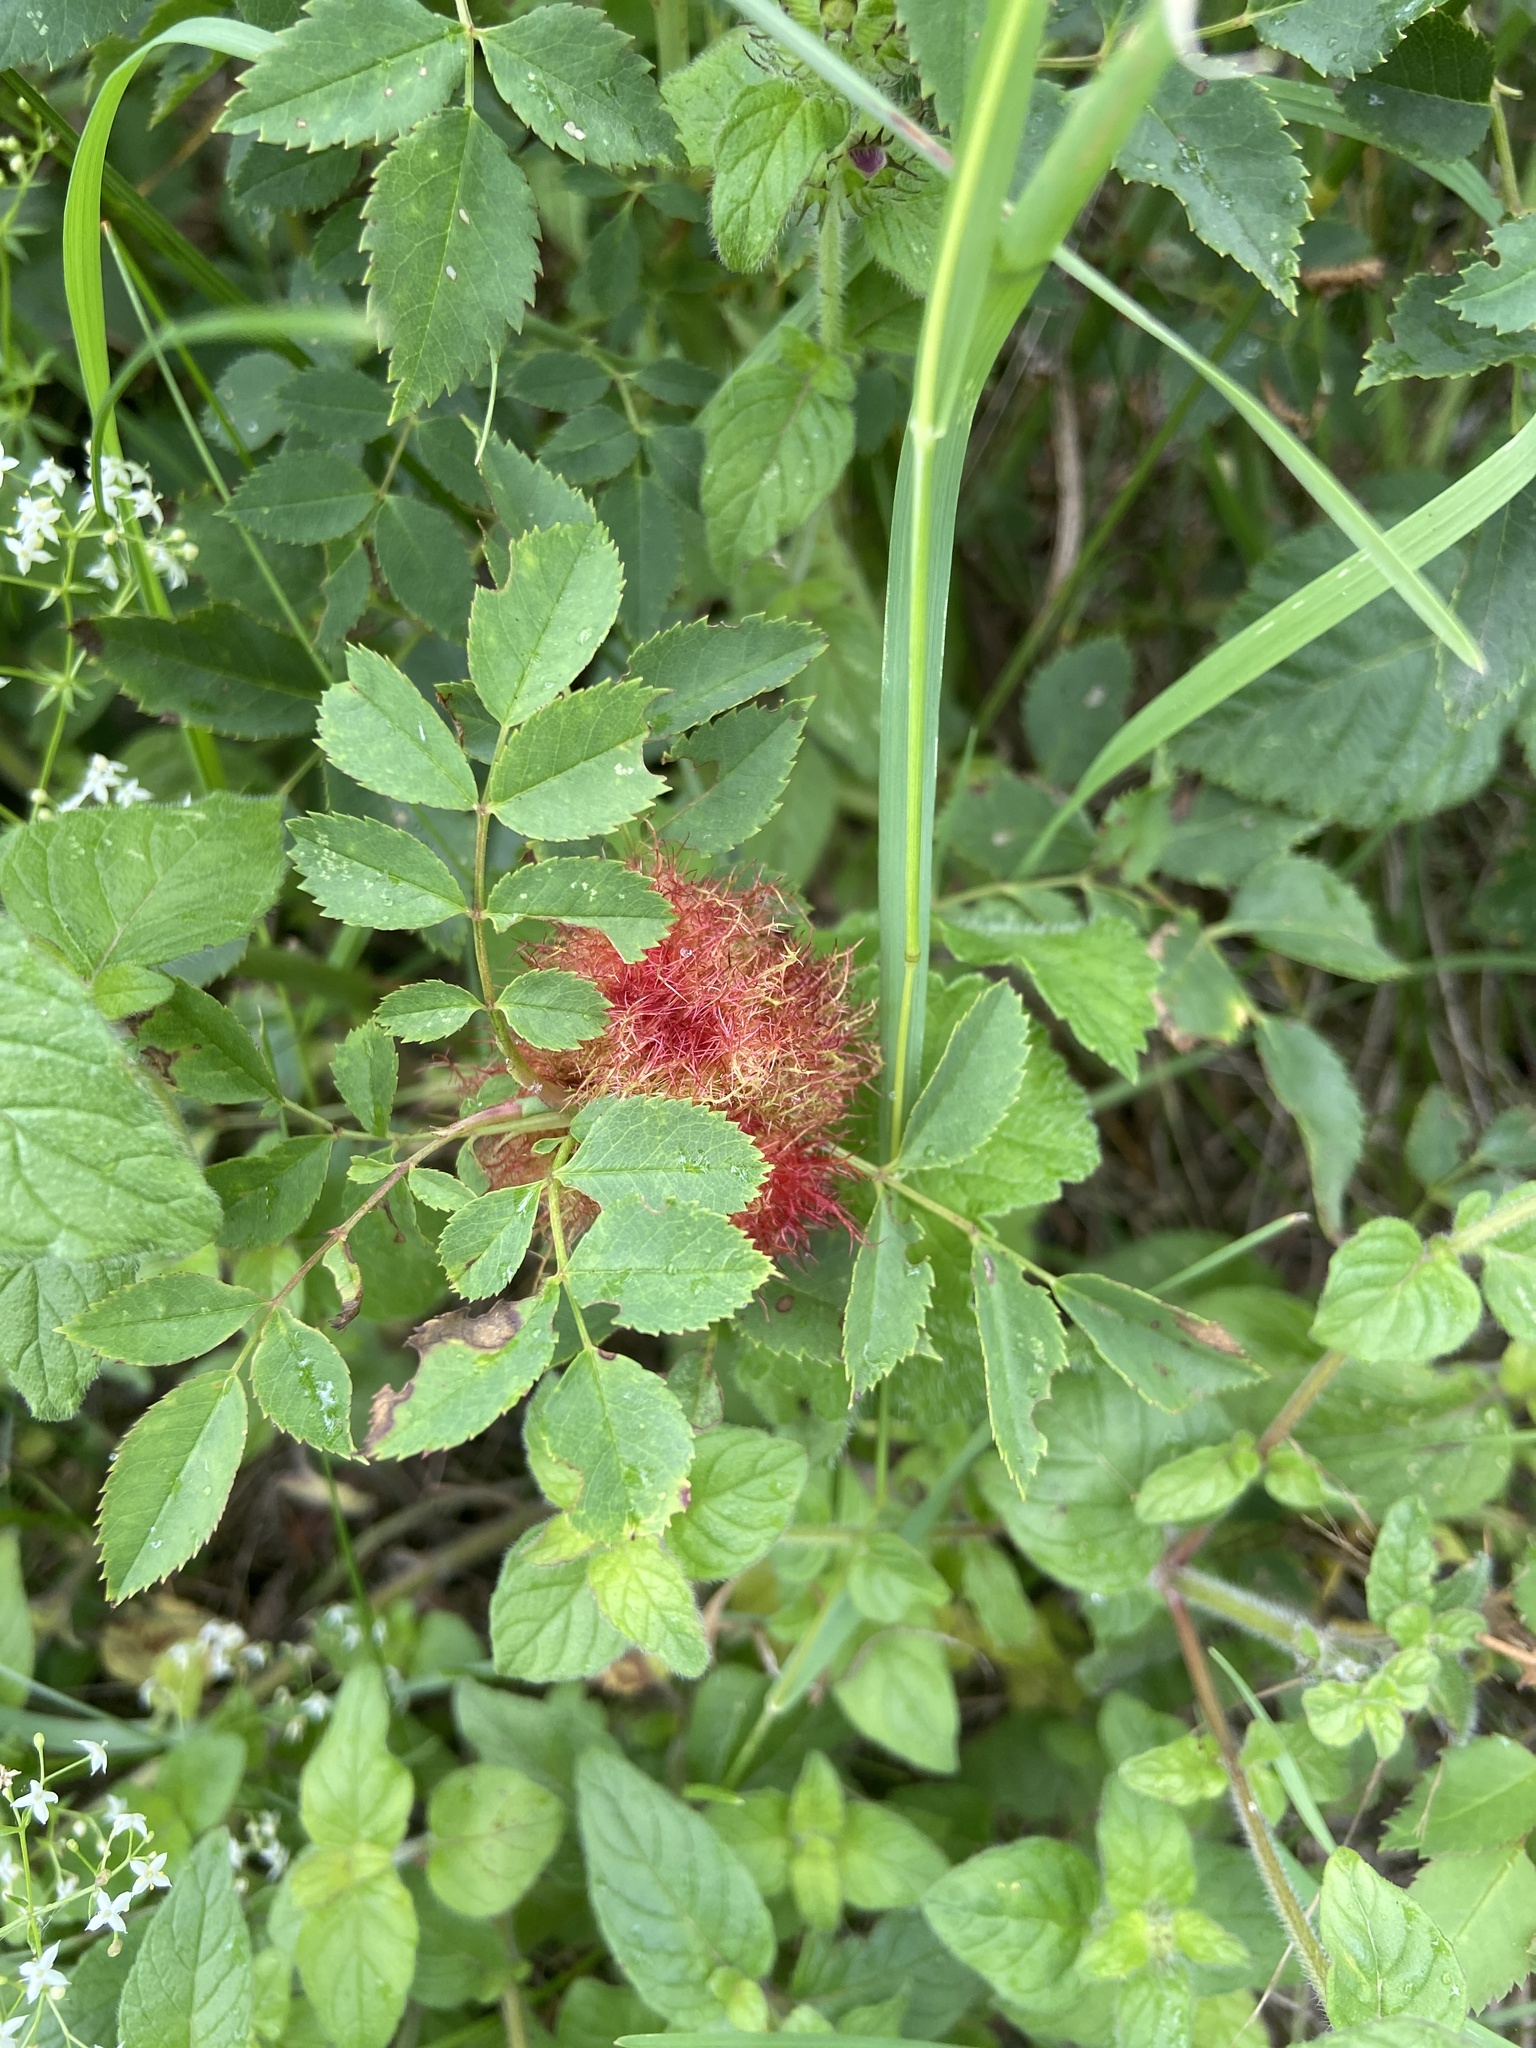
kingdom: Animalia
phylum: Arthropoda
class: Insecta
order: Hymenoptera
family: Cynipidae
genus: Diplolepis
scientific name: Diplolepis rosae
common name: Bedeguar gall
